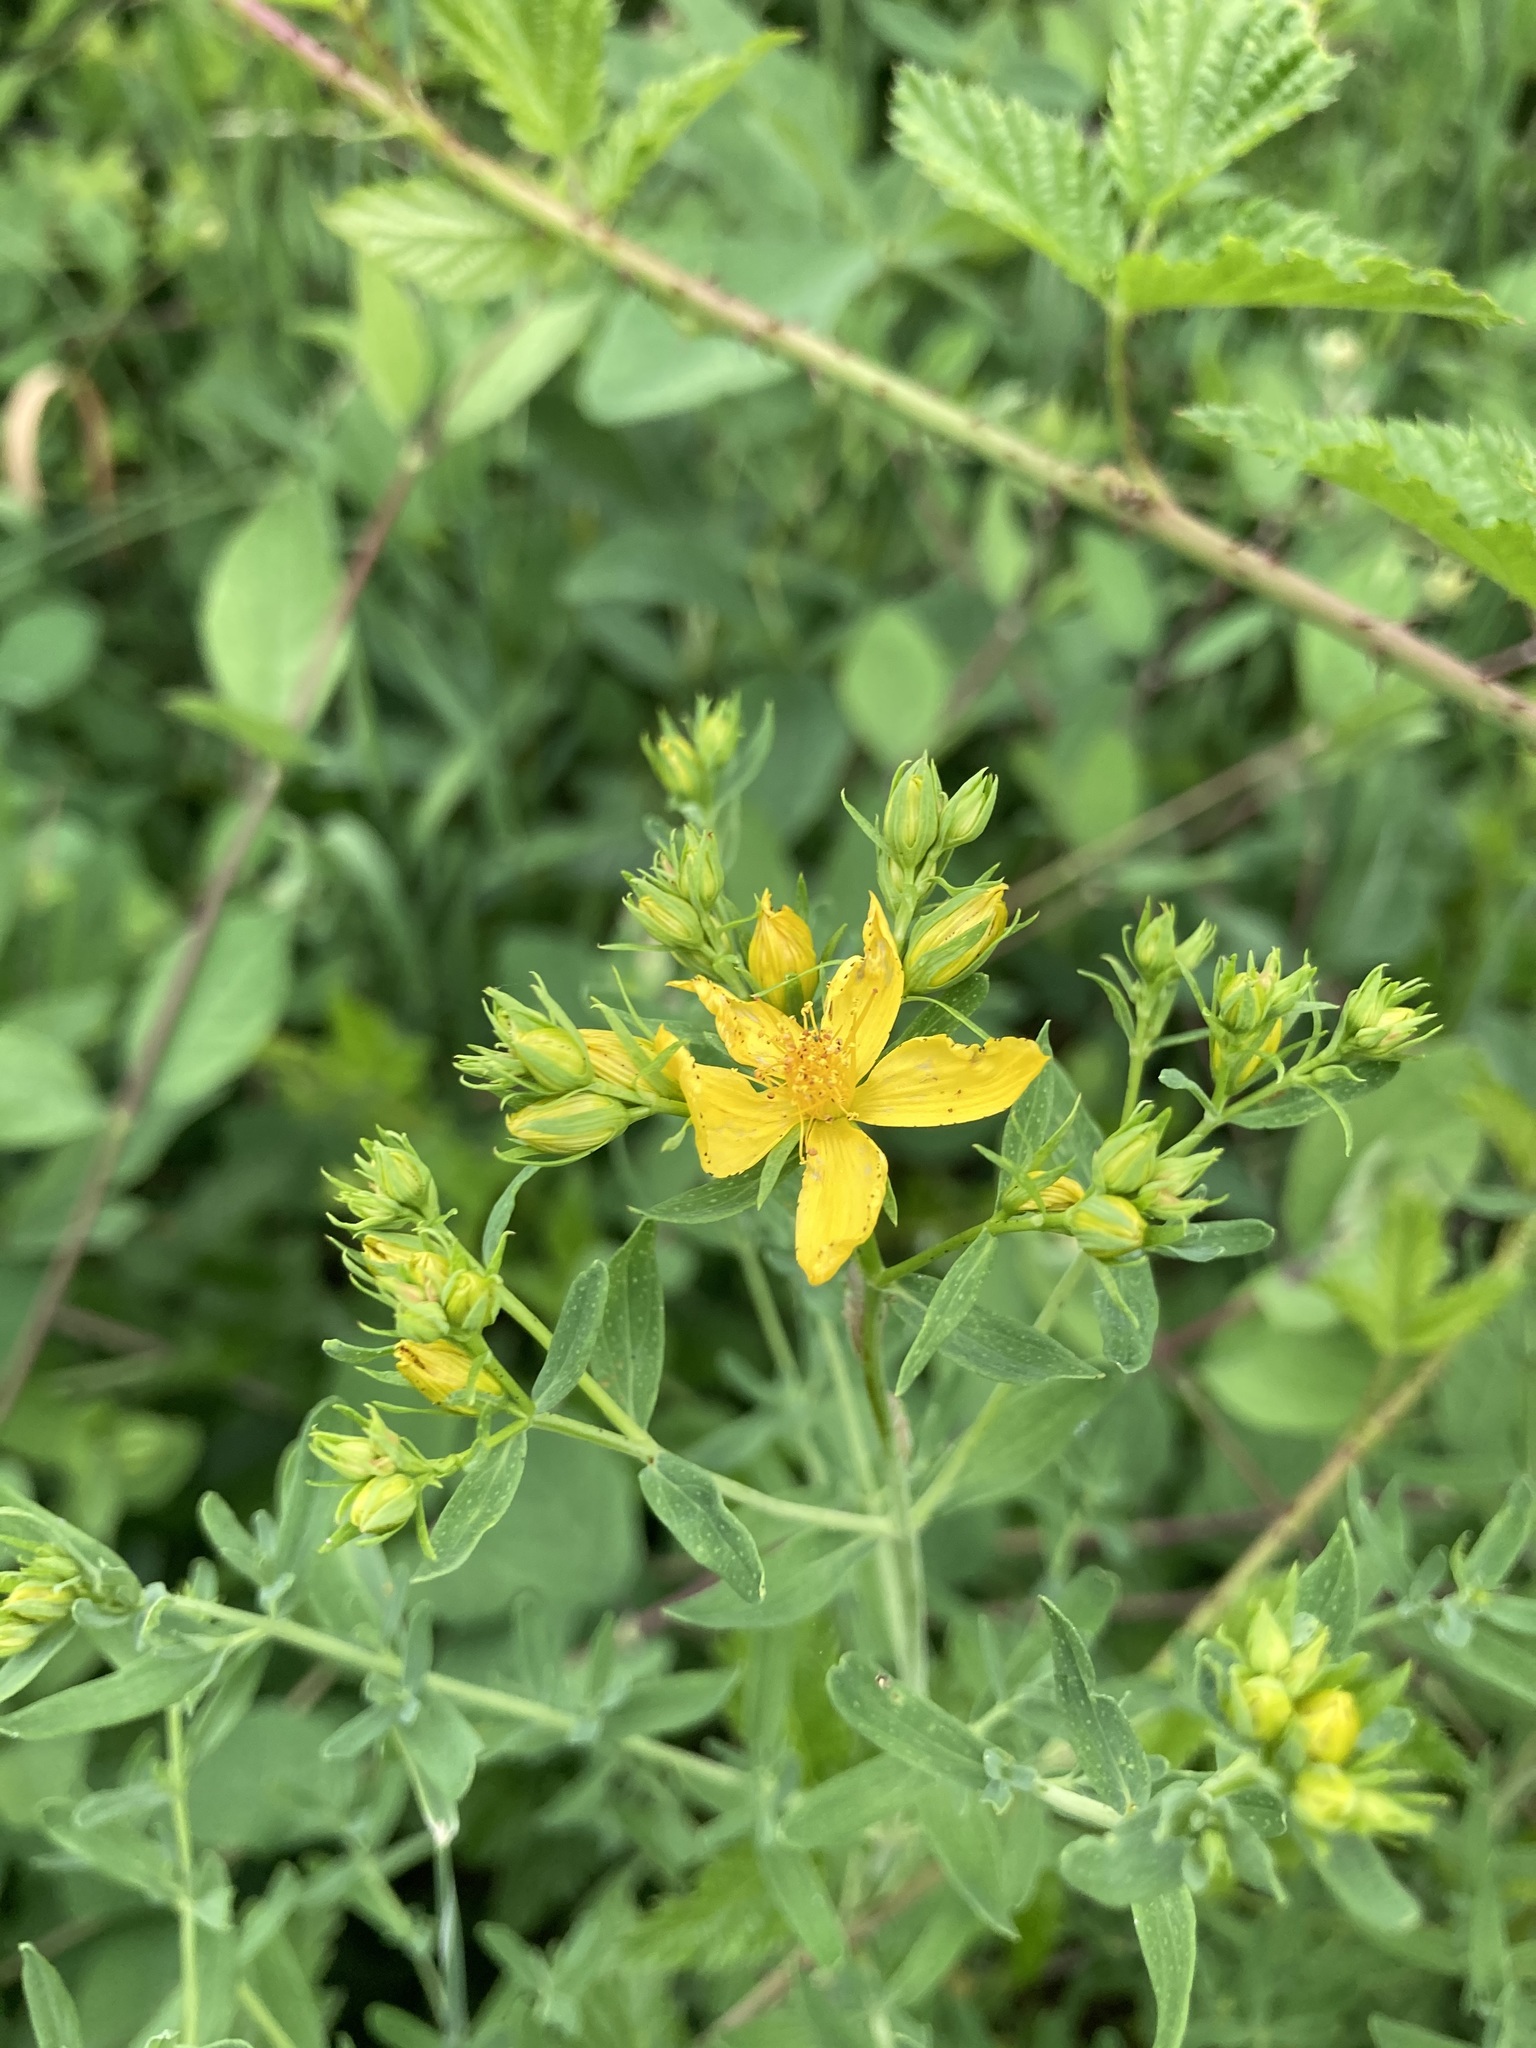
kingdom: Plantae
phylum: Tracheophyta
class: Magnoliopsida
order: Malpighiales
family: Hypericaceae
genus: Hypericum
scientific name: Hypericum perforatum
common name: Common st. johnswort
